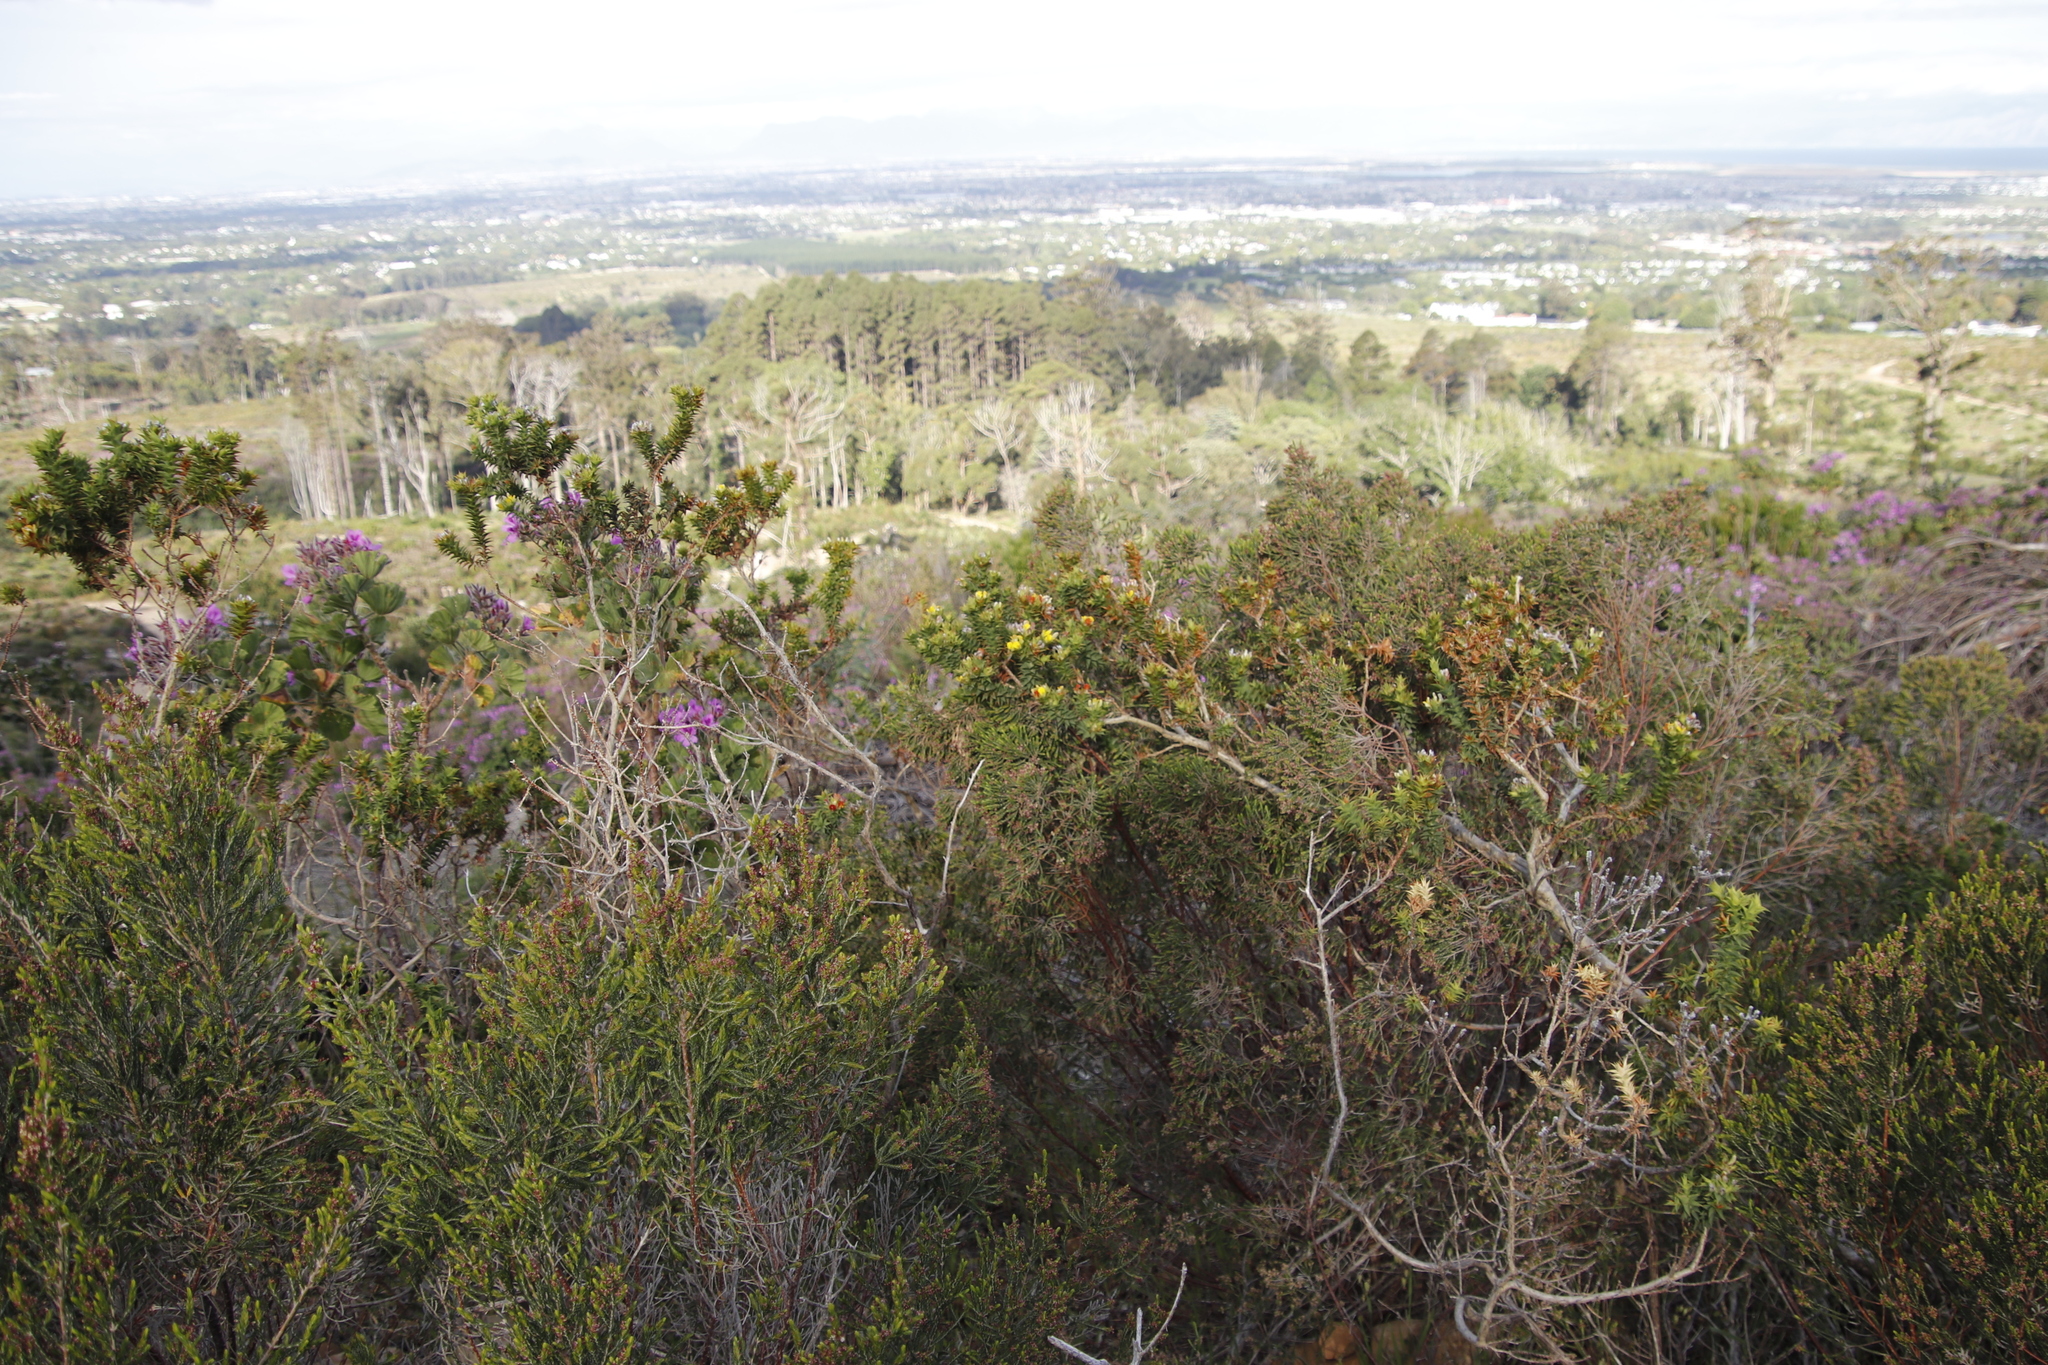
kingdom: Plantae
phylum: Tracheophyta
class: Magnoliopsida
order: Fabales
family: Fabaceae
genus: Aspalathus
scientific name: Aspalathus cordata
